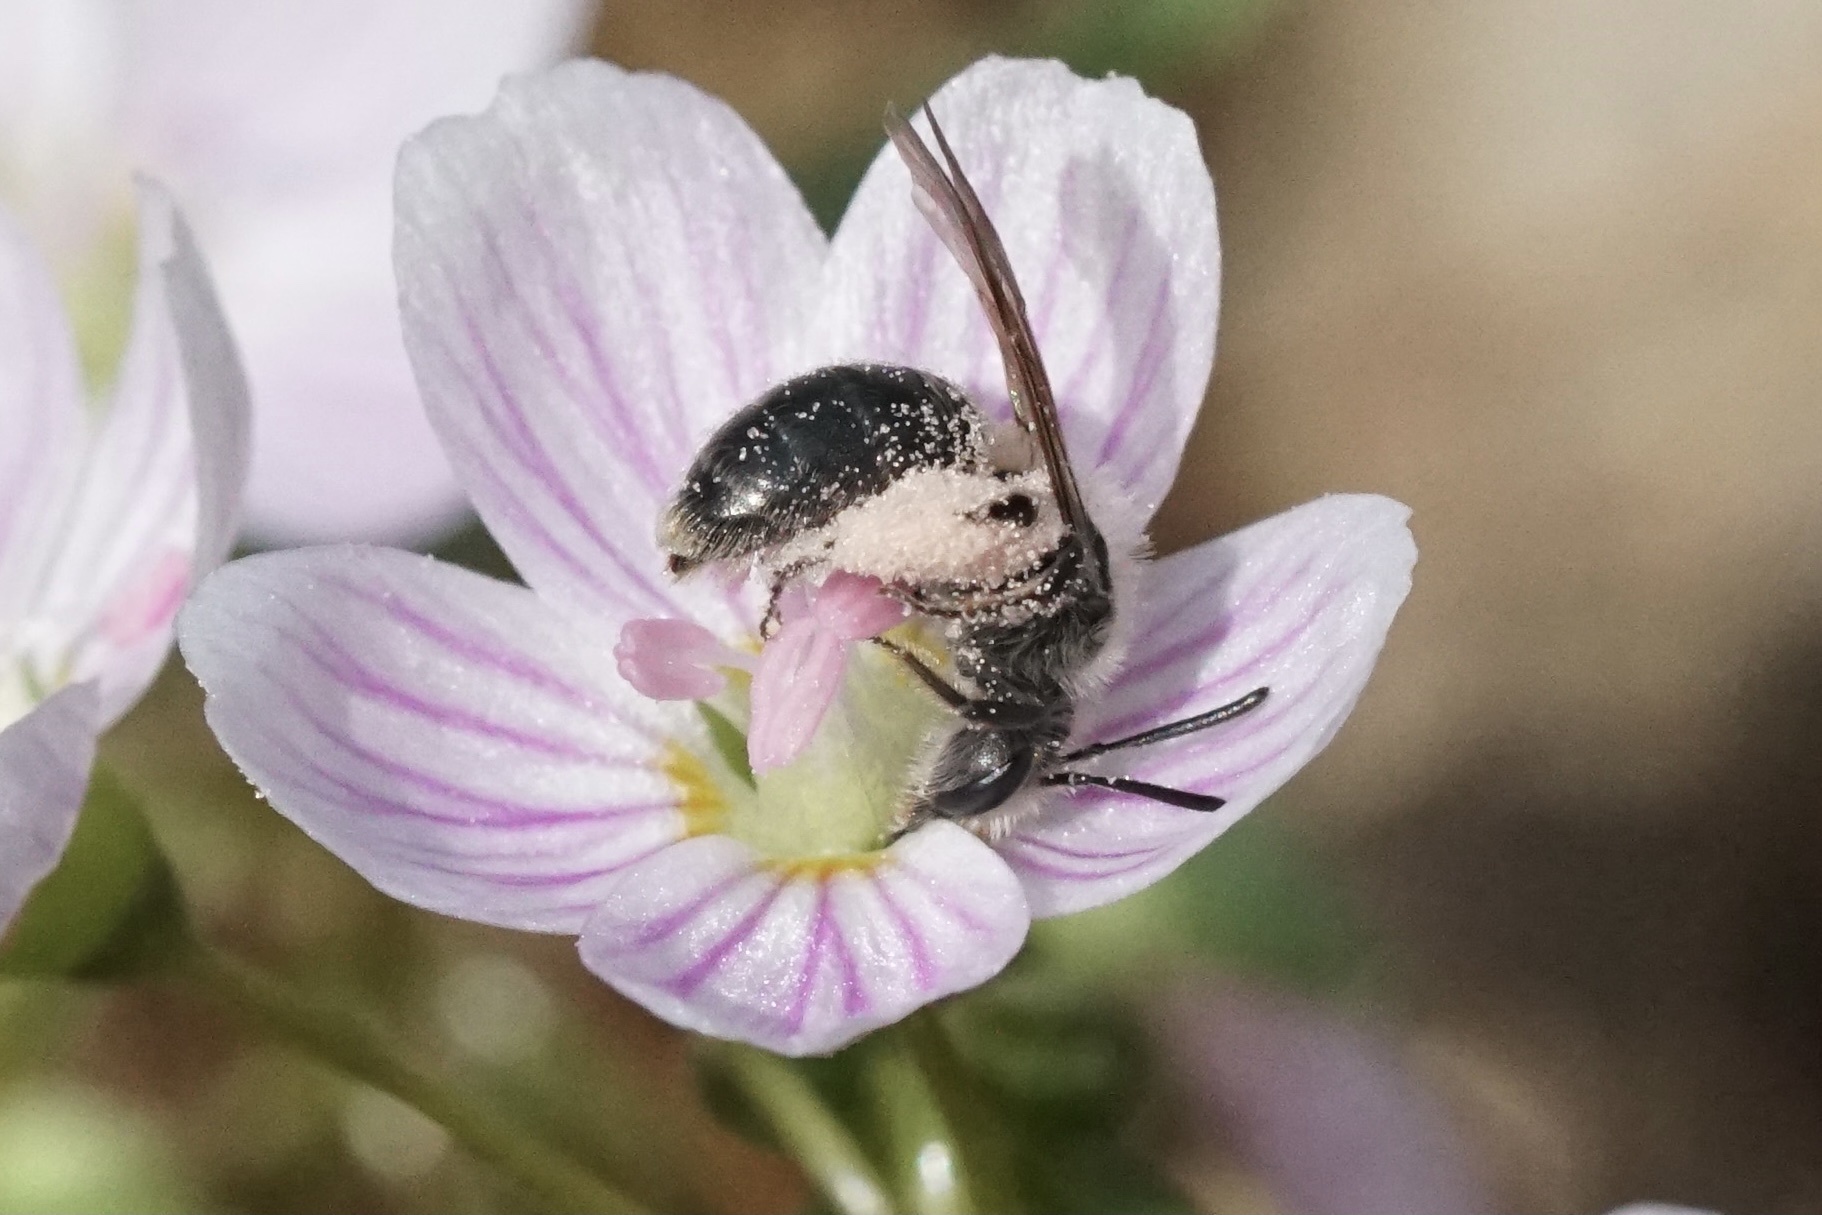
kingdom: Animalia
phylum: Arthropoda
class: Insecta
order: Hymenoptera
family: Andrenidae
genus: Andrena
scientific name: Andrena erigeniae
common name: Spring beauty miner
